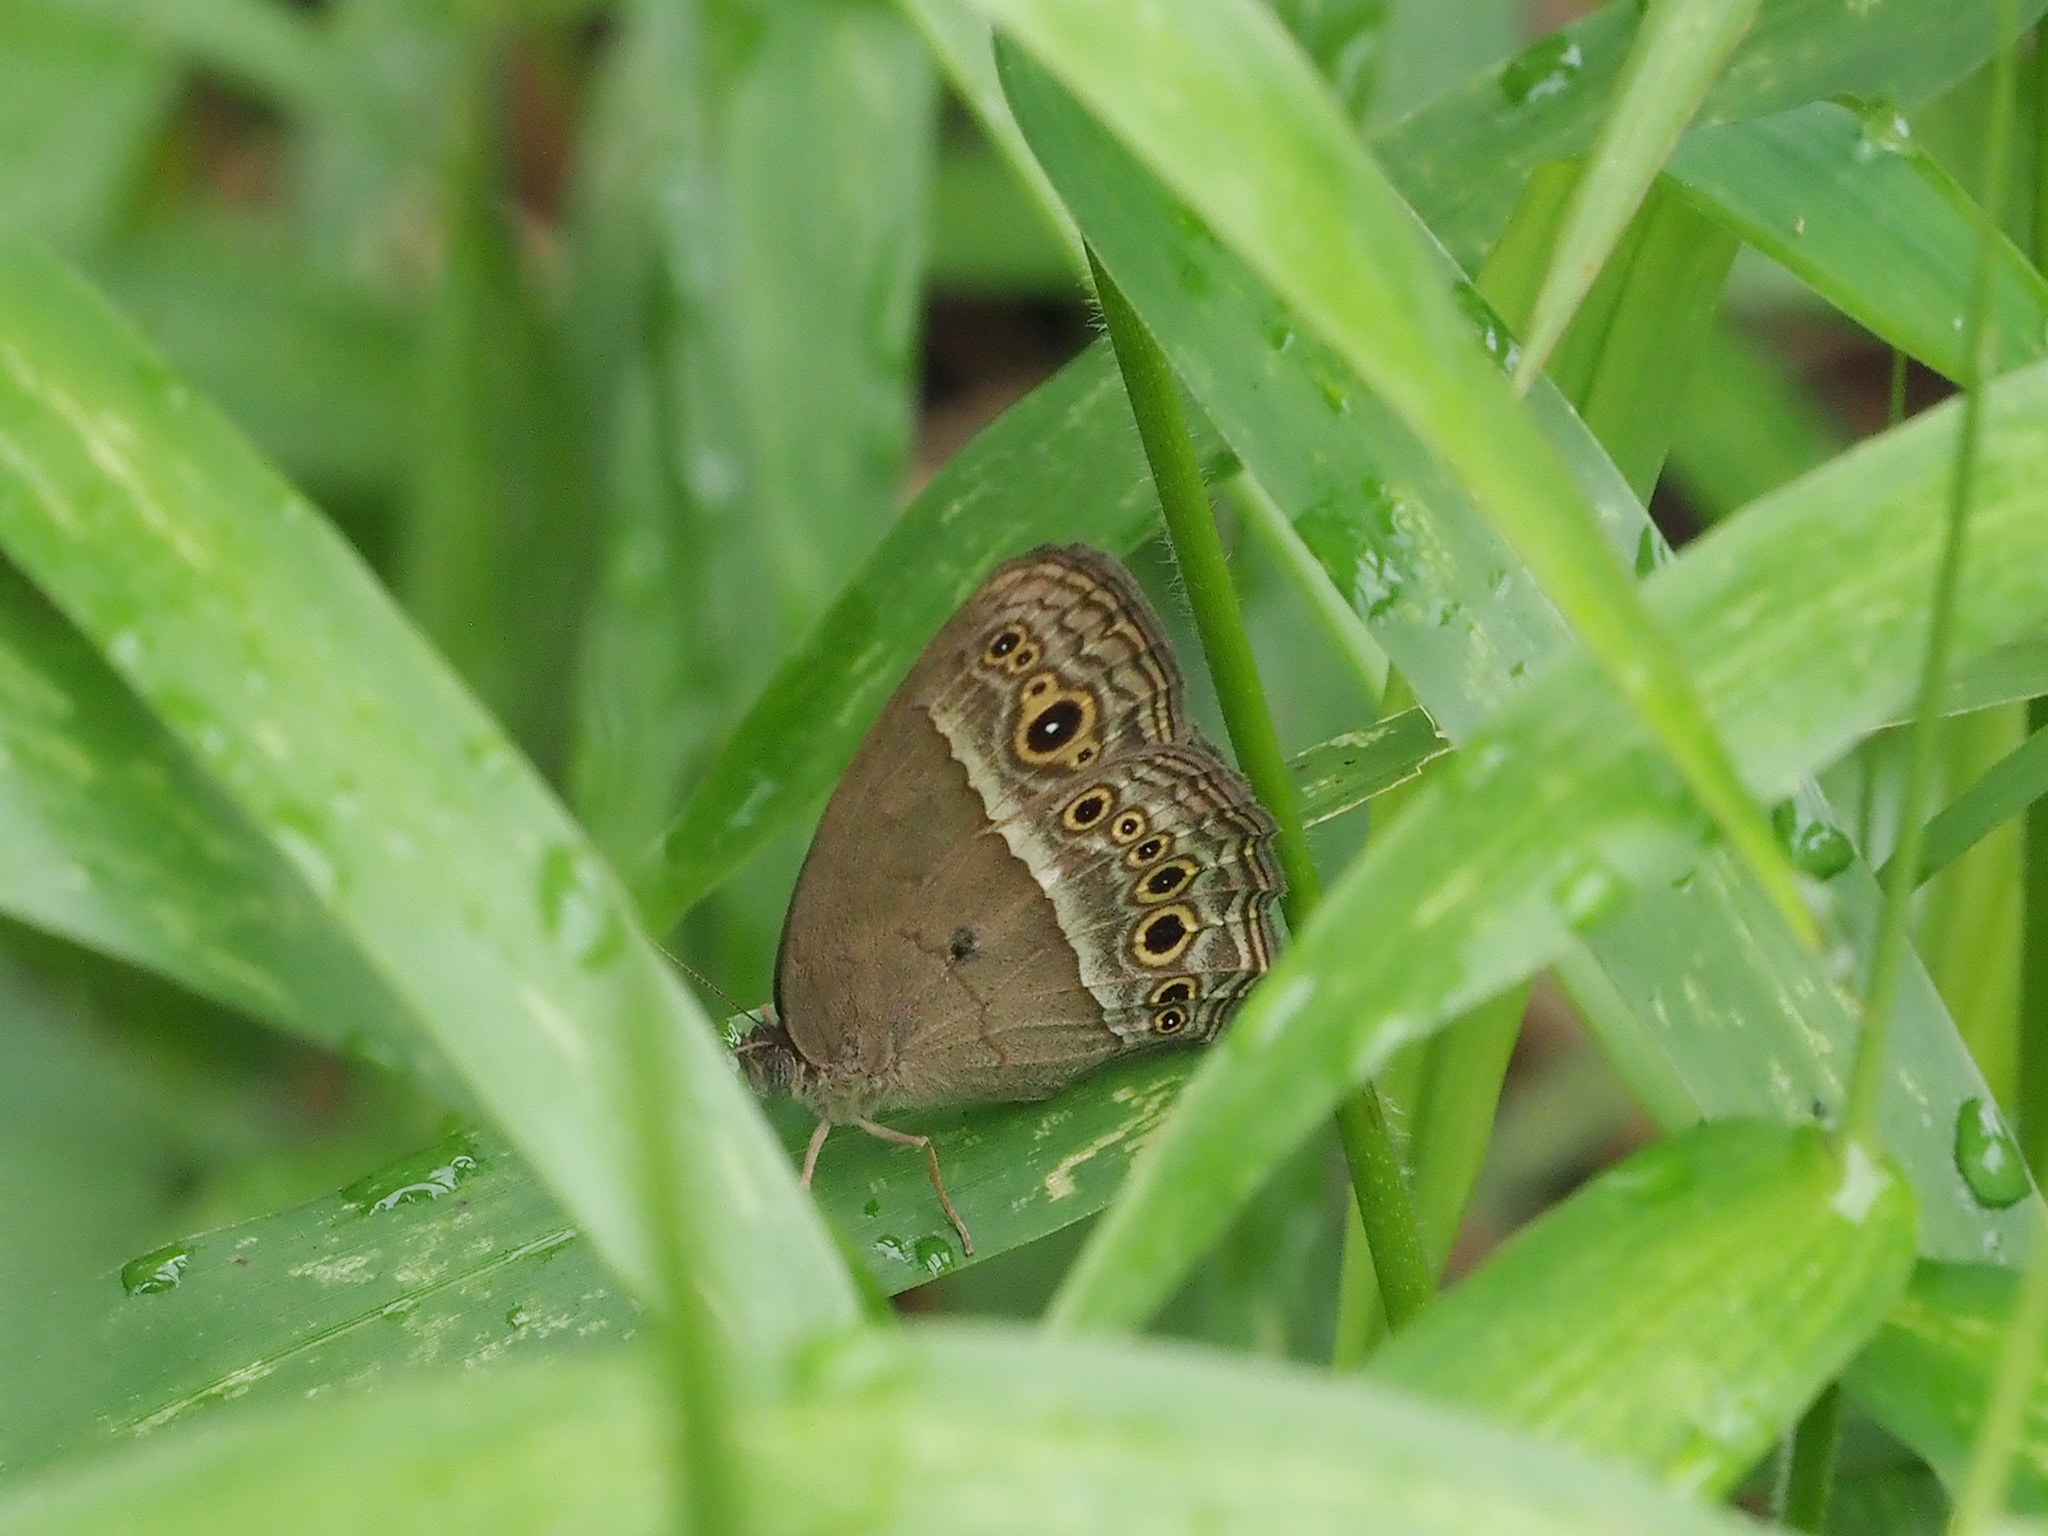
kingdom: Animalia
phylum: Arthropoda
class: Insecta
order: Lepidoptera
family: Nymphalidae
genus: Mycalesis
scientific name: Mycalesis perseoides
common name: Burmese bushbrown
